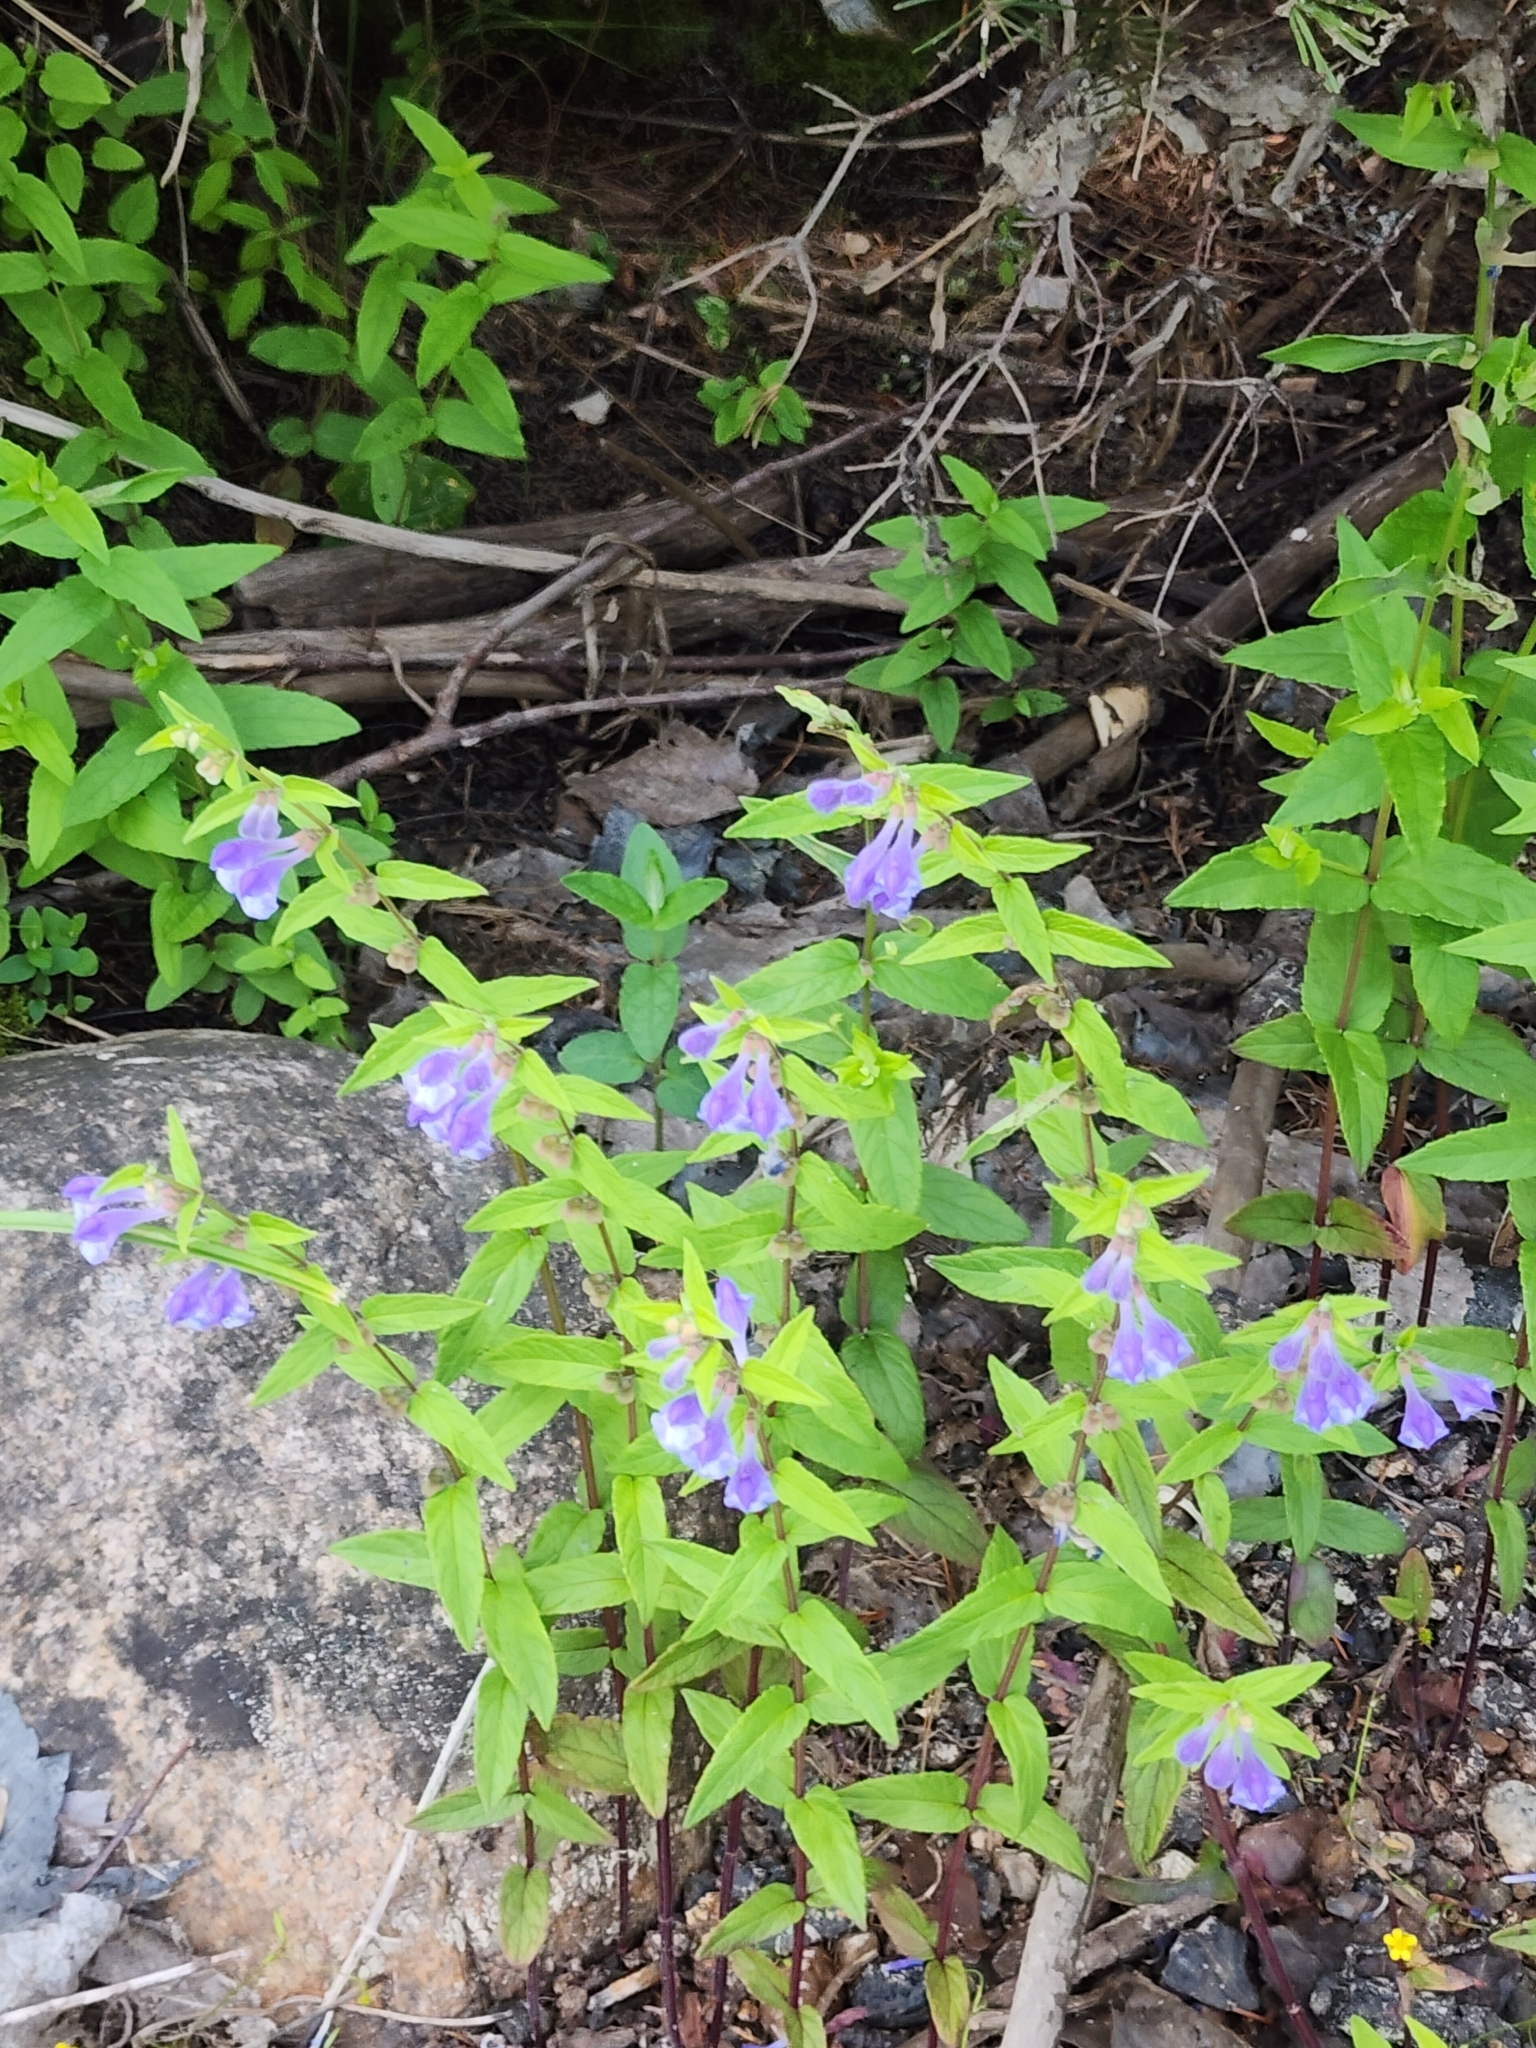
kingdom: Plantae
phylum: Tracheophyta
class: Magnoliopsida
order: Lamiales
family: Lamiaceae
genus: Scutellaria
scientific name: Scutellaria galericulata
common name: Skullcap
